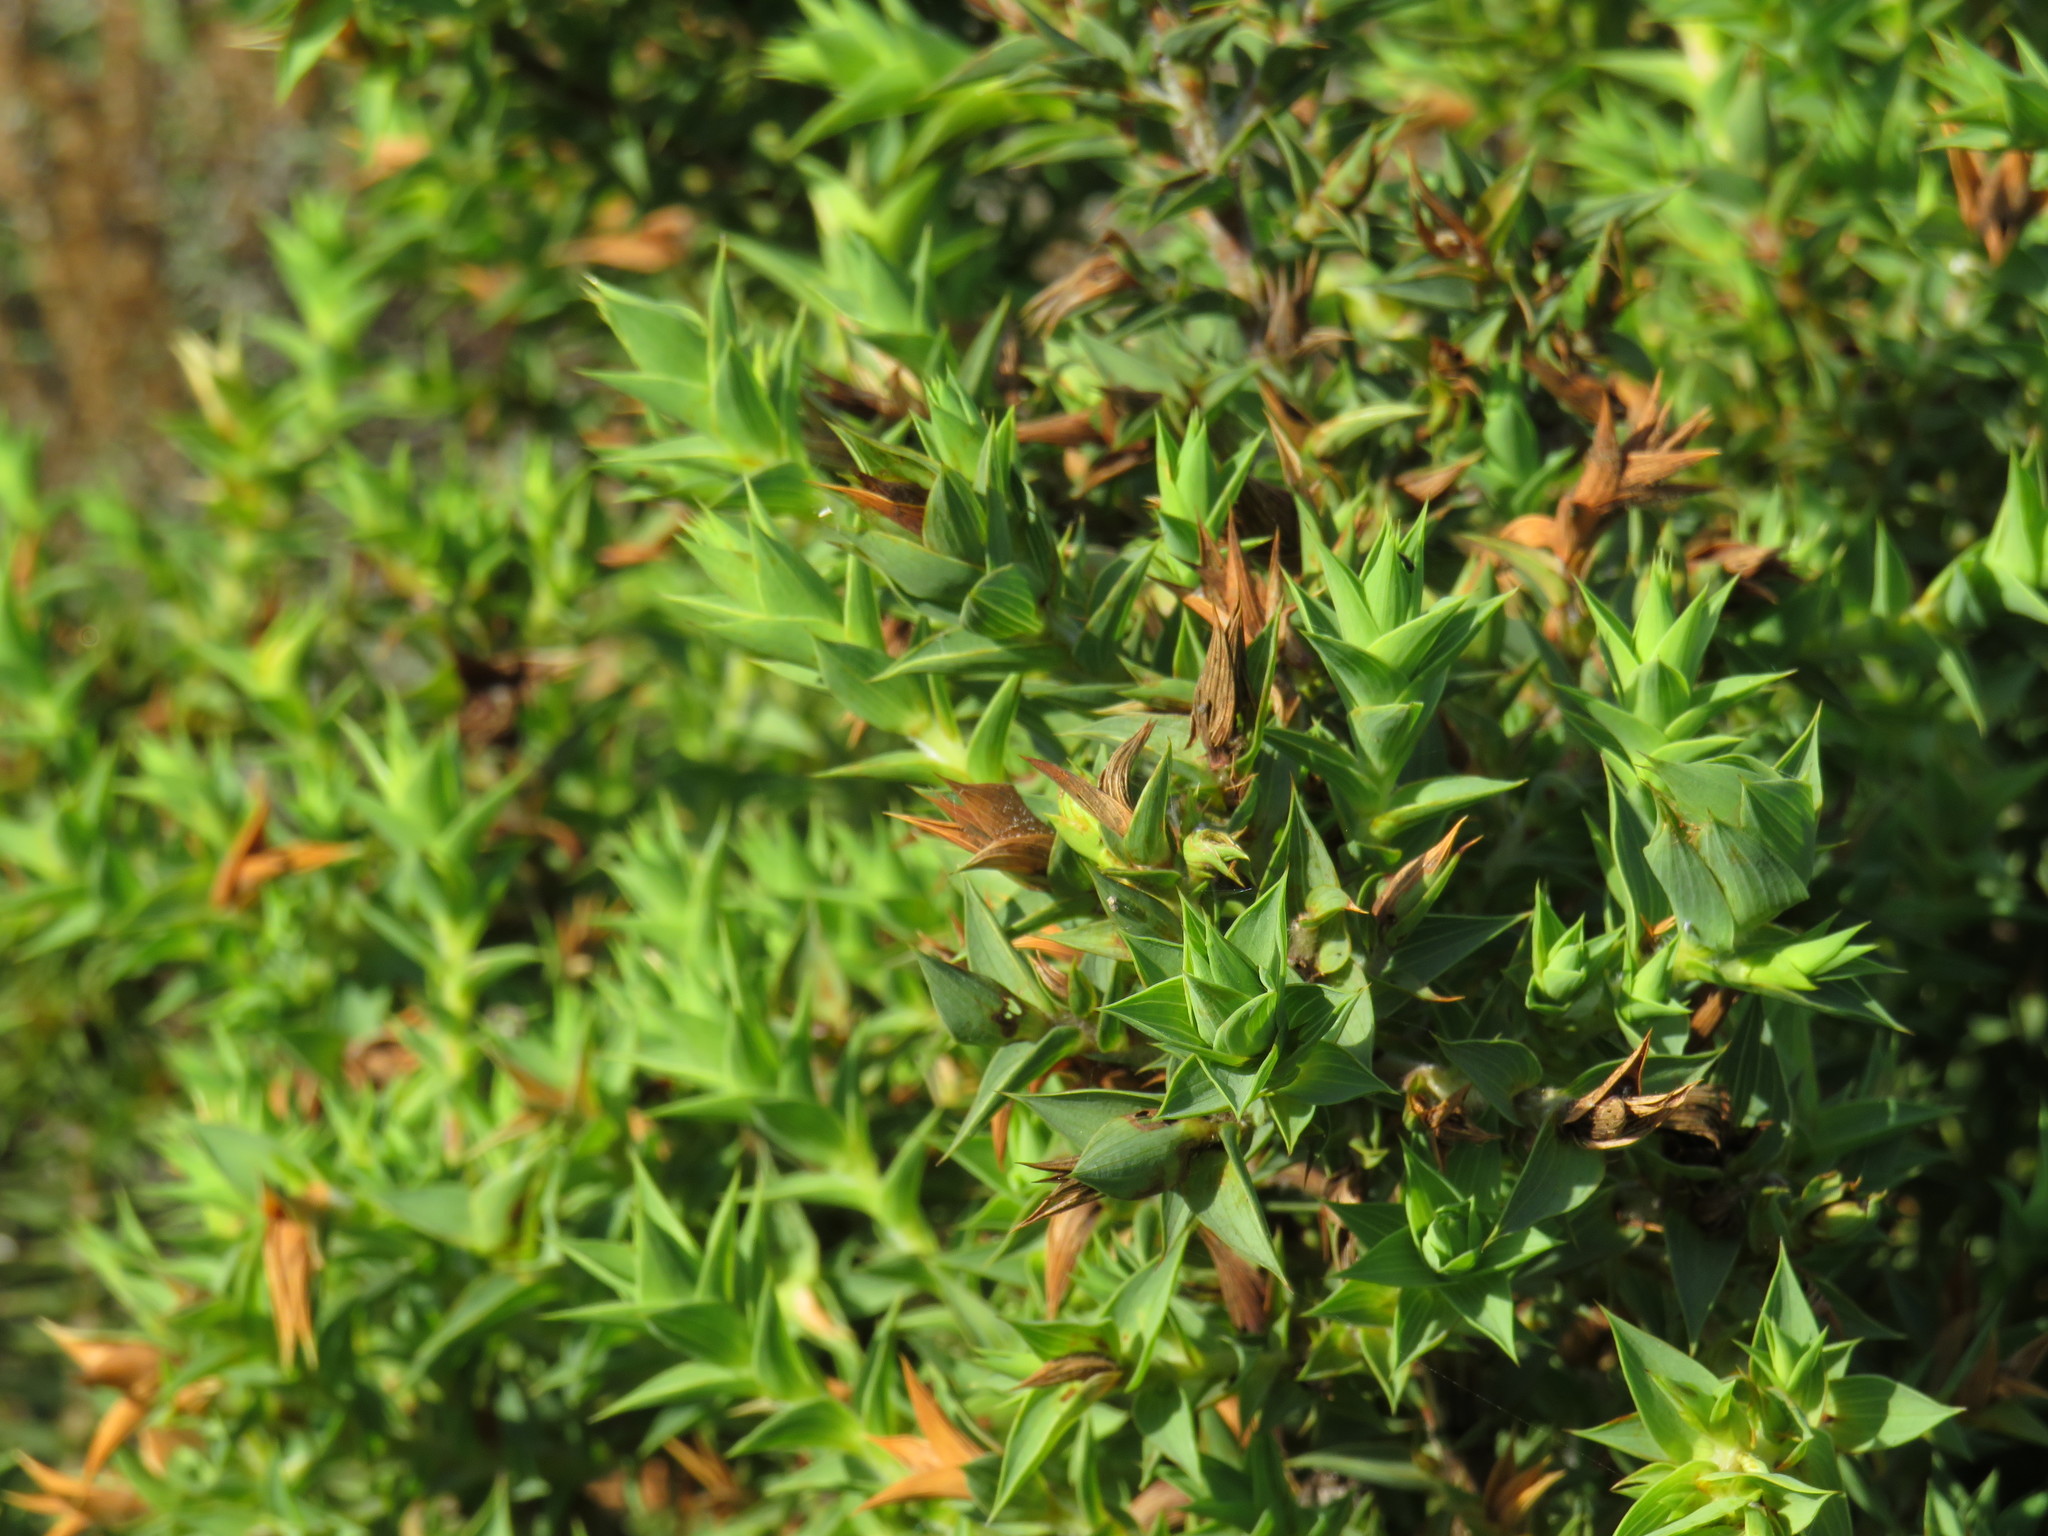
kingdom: Plantae
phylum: Tracheophyta
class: Magnoliopsida
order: Fabales
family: Fabaceae
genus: Aspalathus
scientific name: Aspalathus cordata
